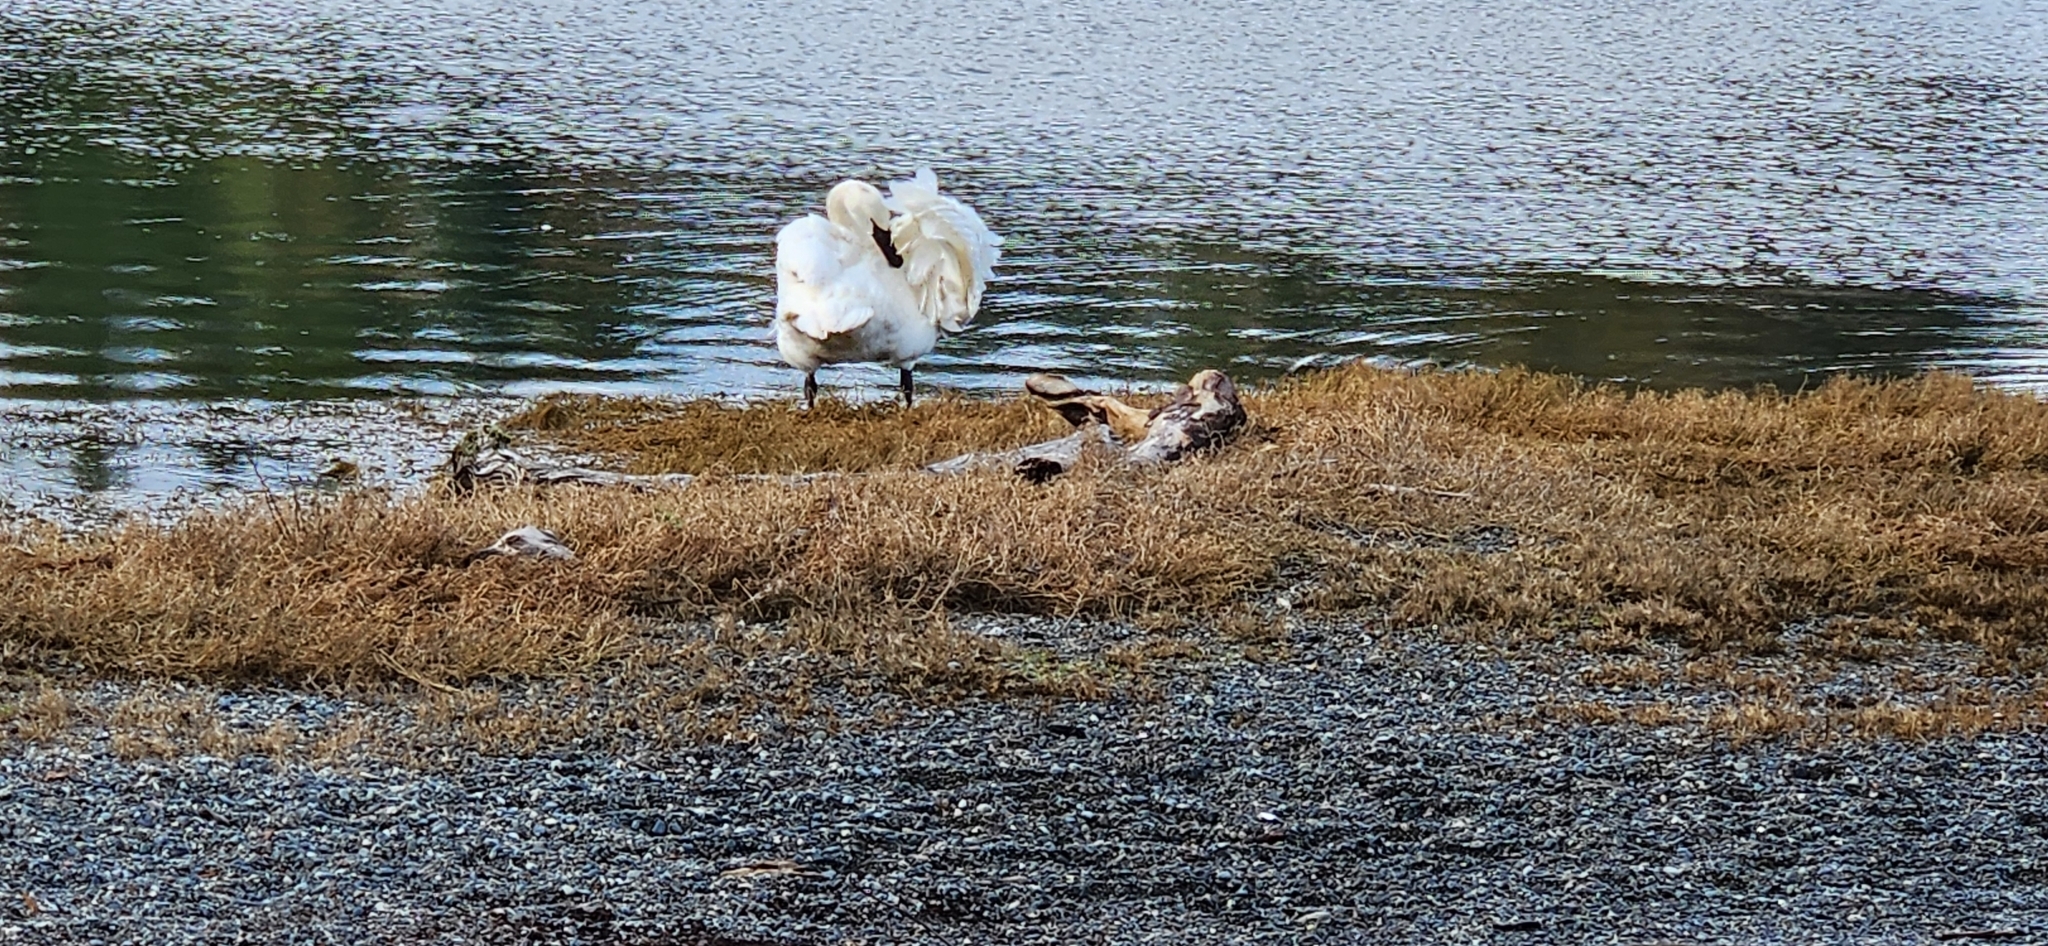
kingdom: Animalia
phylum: Chordata
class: Aves
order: Anseriformes
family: Anatidae
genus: Cygnus
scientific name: Cygnus buccinator
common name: Trumpeter swan
